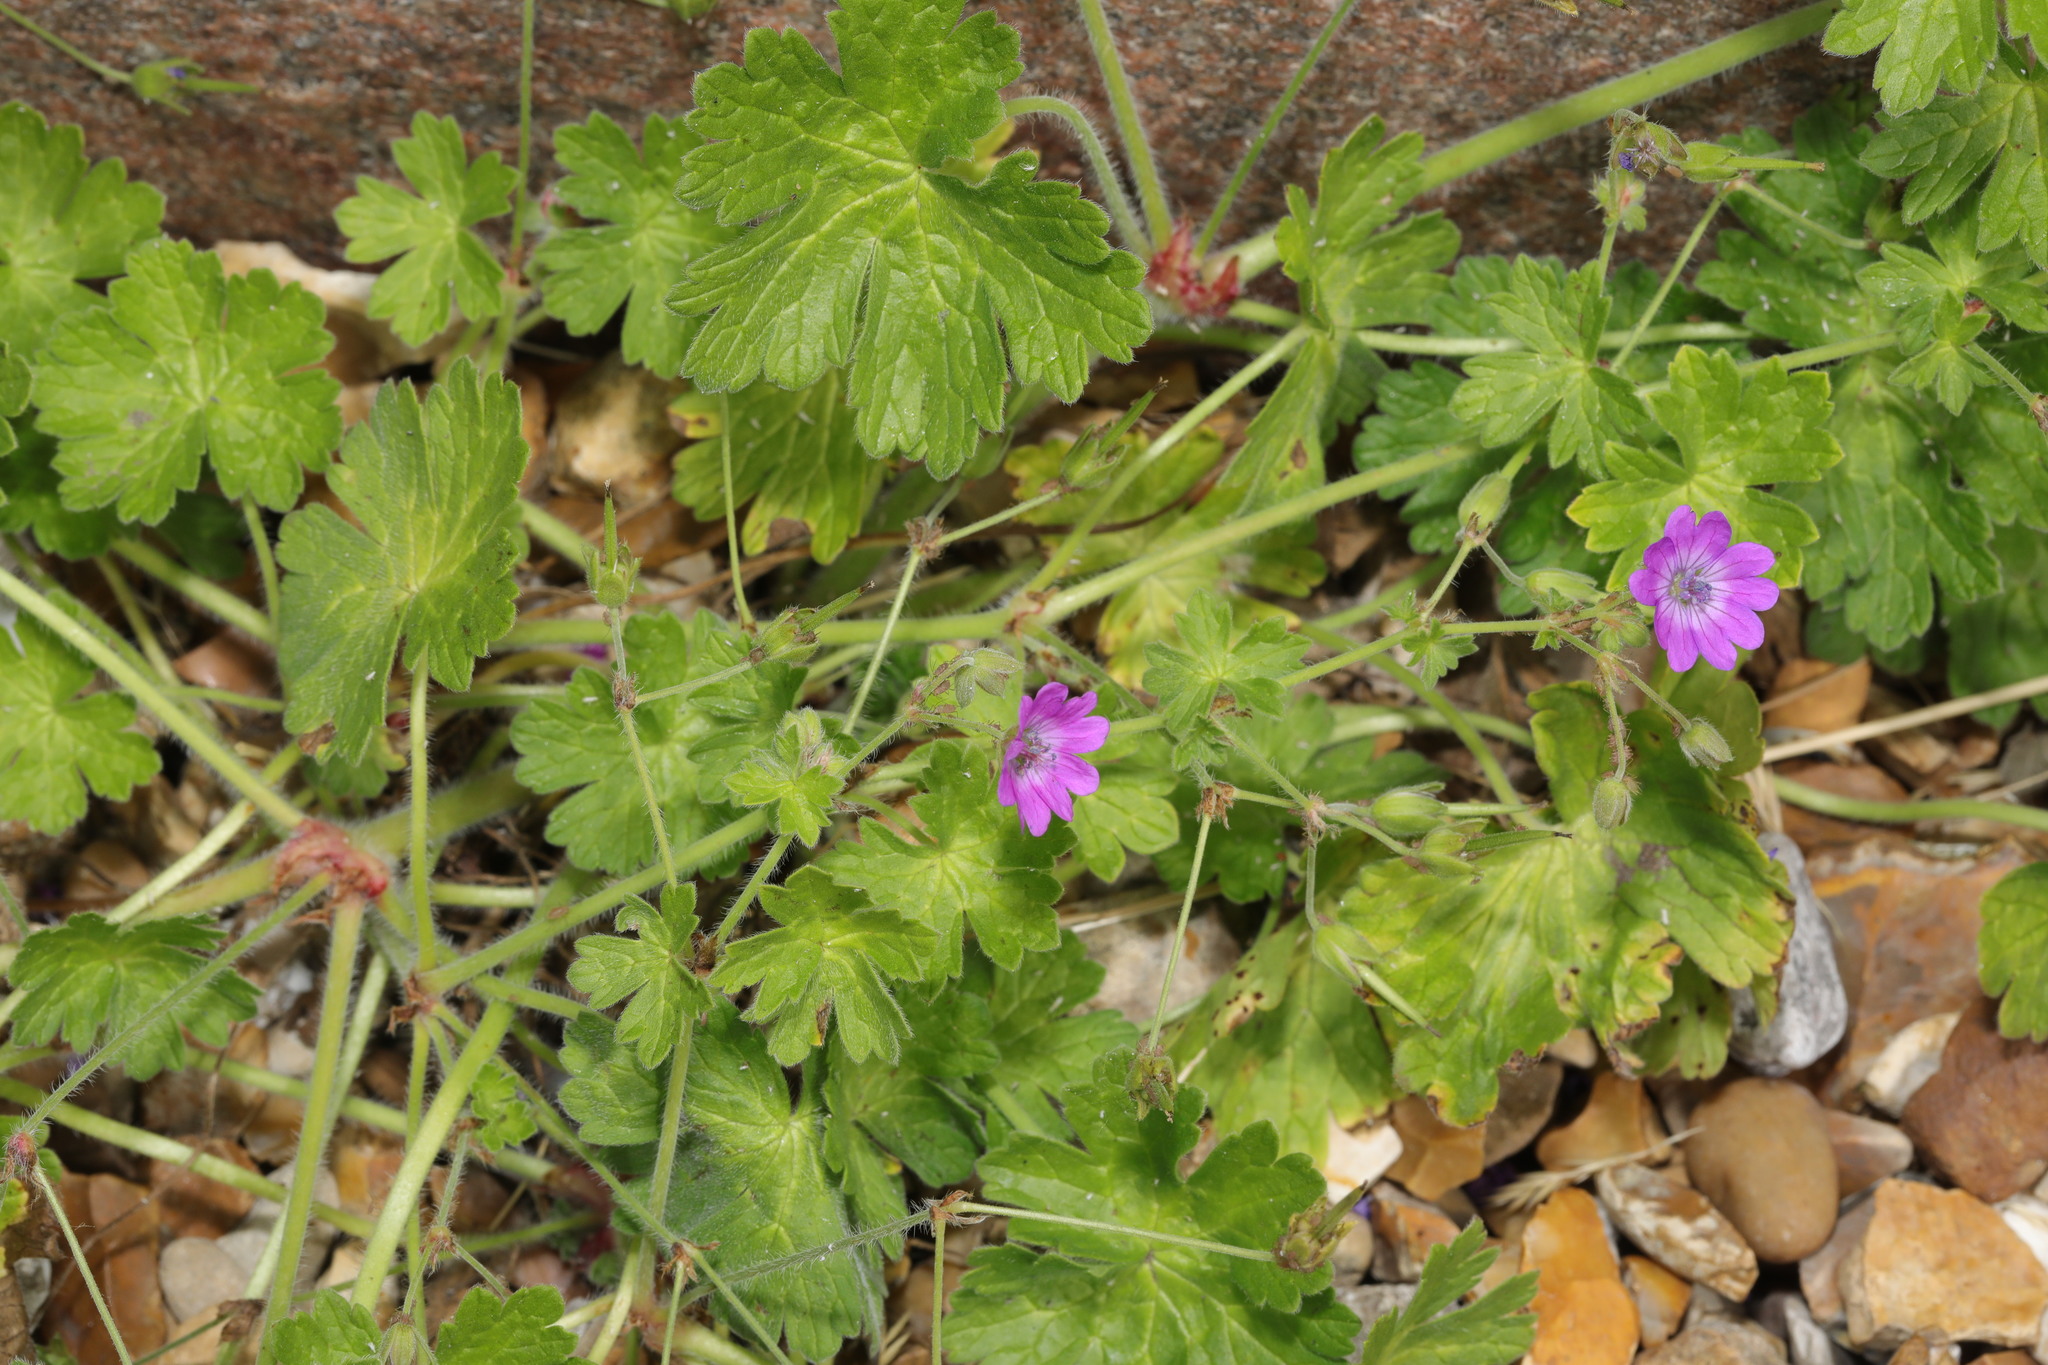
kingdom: Plantae
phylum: Tracheophyta
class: Magnoliopsida
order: Geraniales
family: Geraniaceae
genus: Geranium
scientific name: Geranium pyrenaicum
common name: Hedgerow crane's-bill
